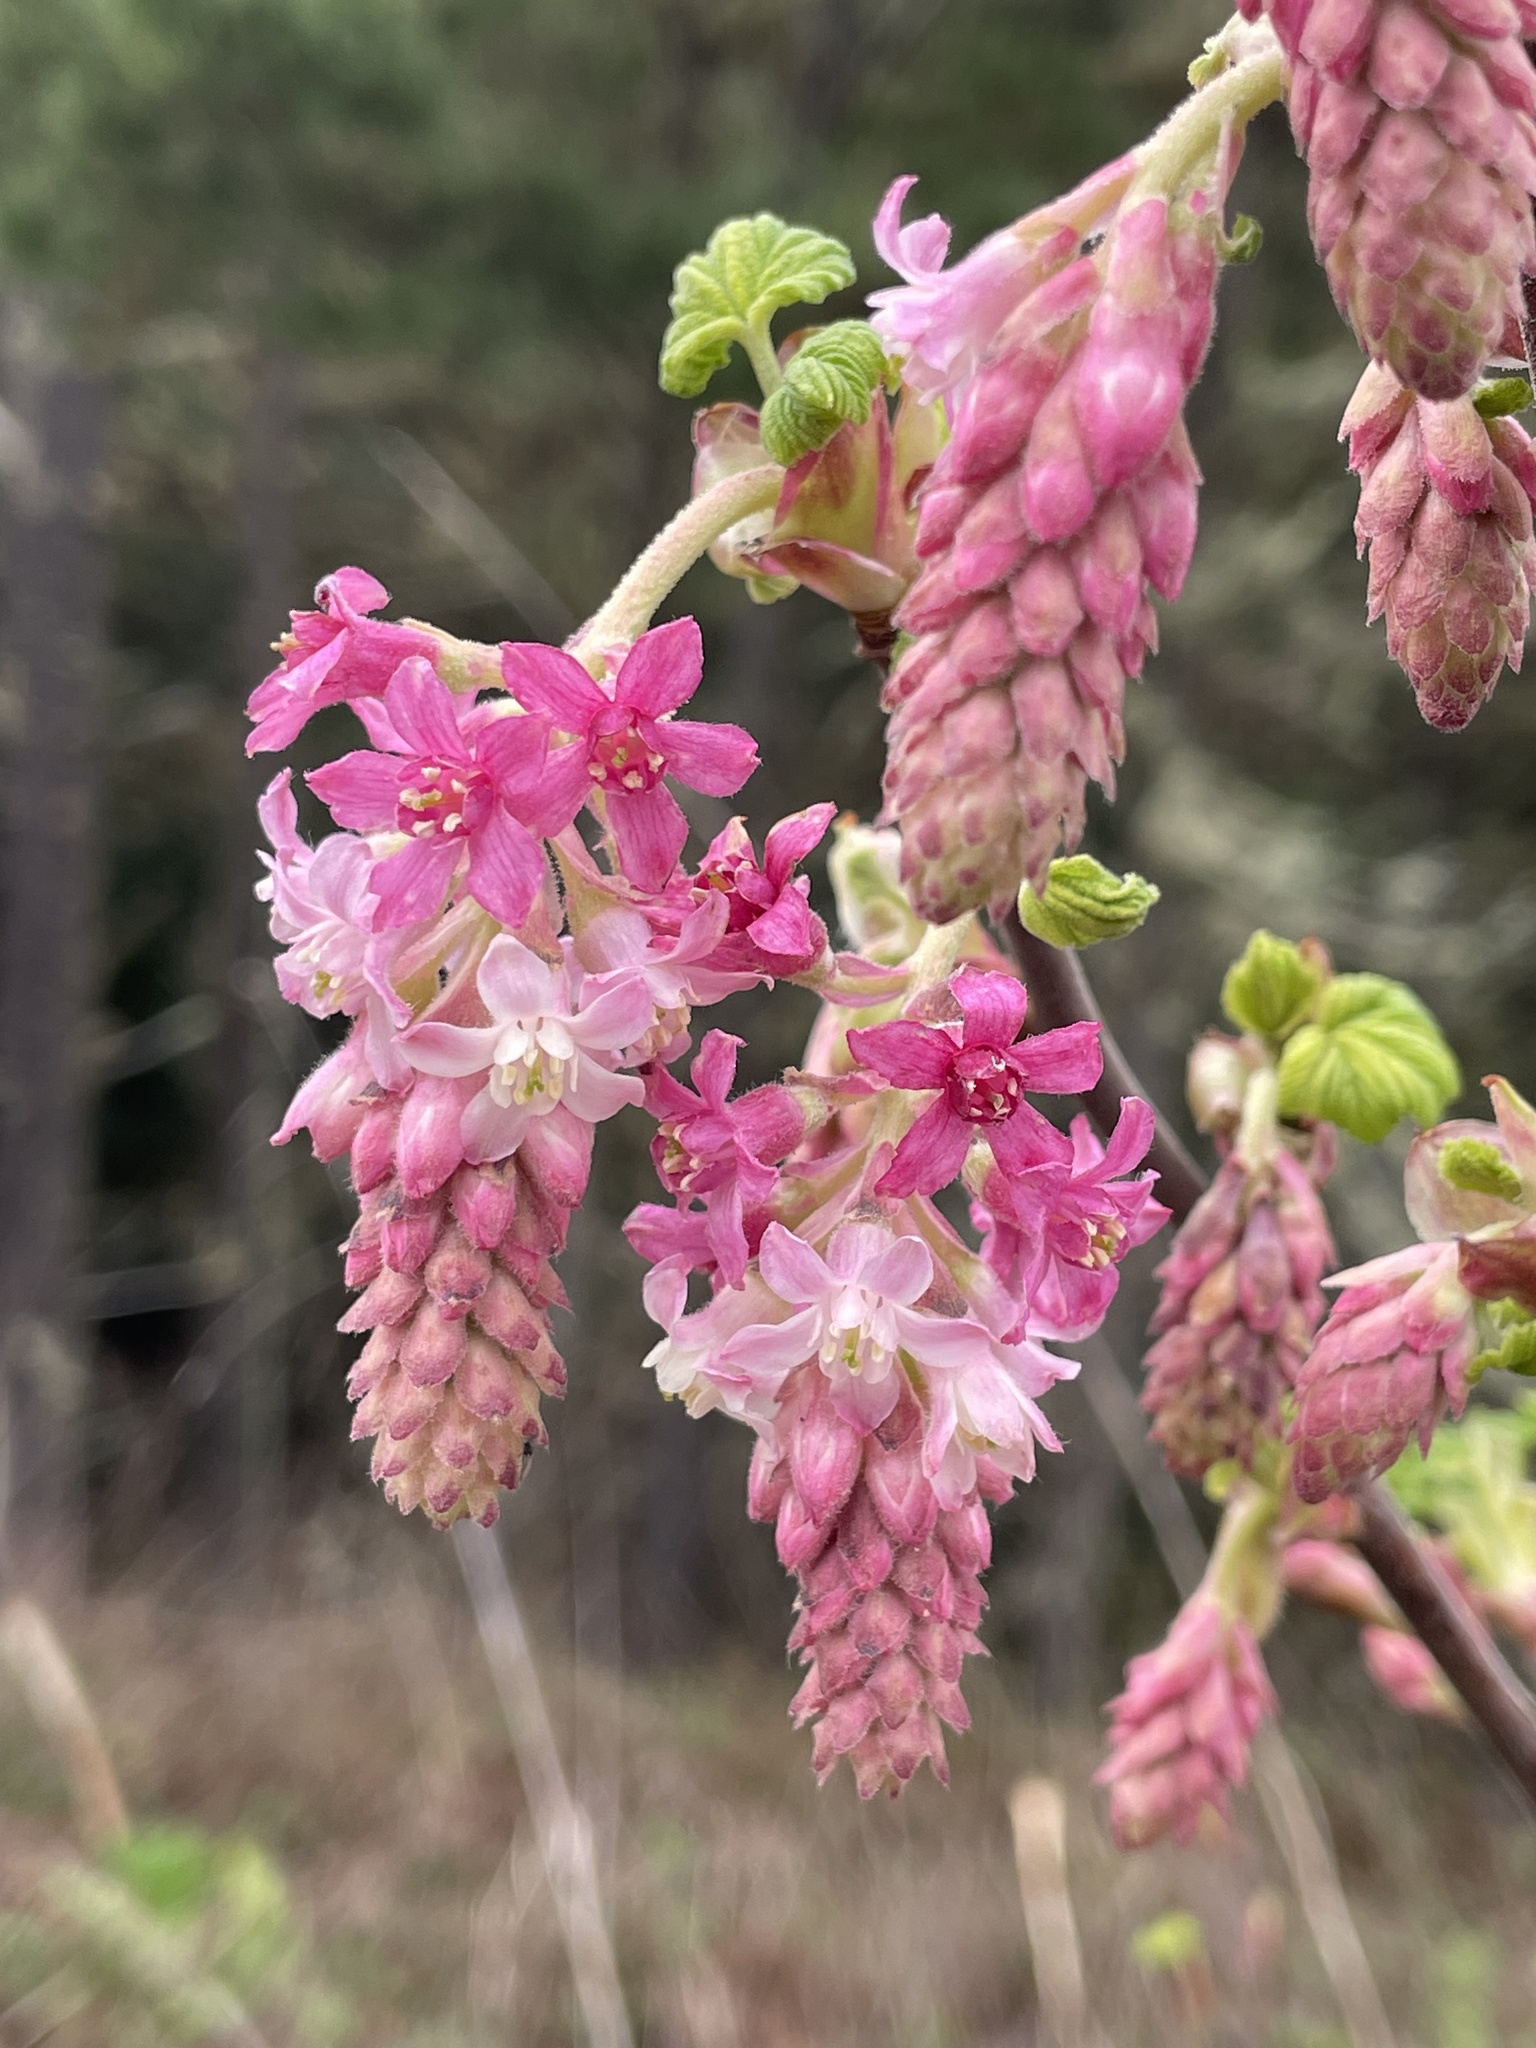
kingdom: Plantae
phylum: Tracheophyta
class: Magnoliopsida
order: Saxifragales
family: Grossulariaceae
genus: Ribes
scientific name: Ribes sanguineum
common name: Flowering currant
